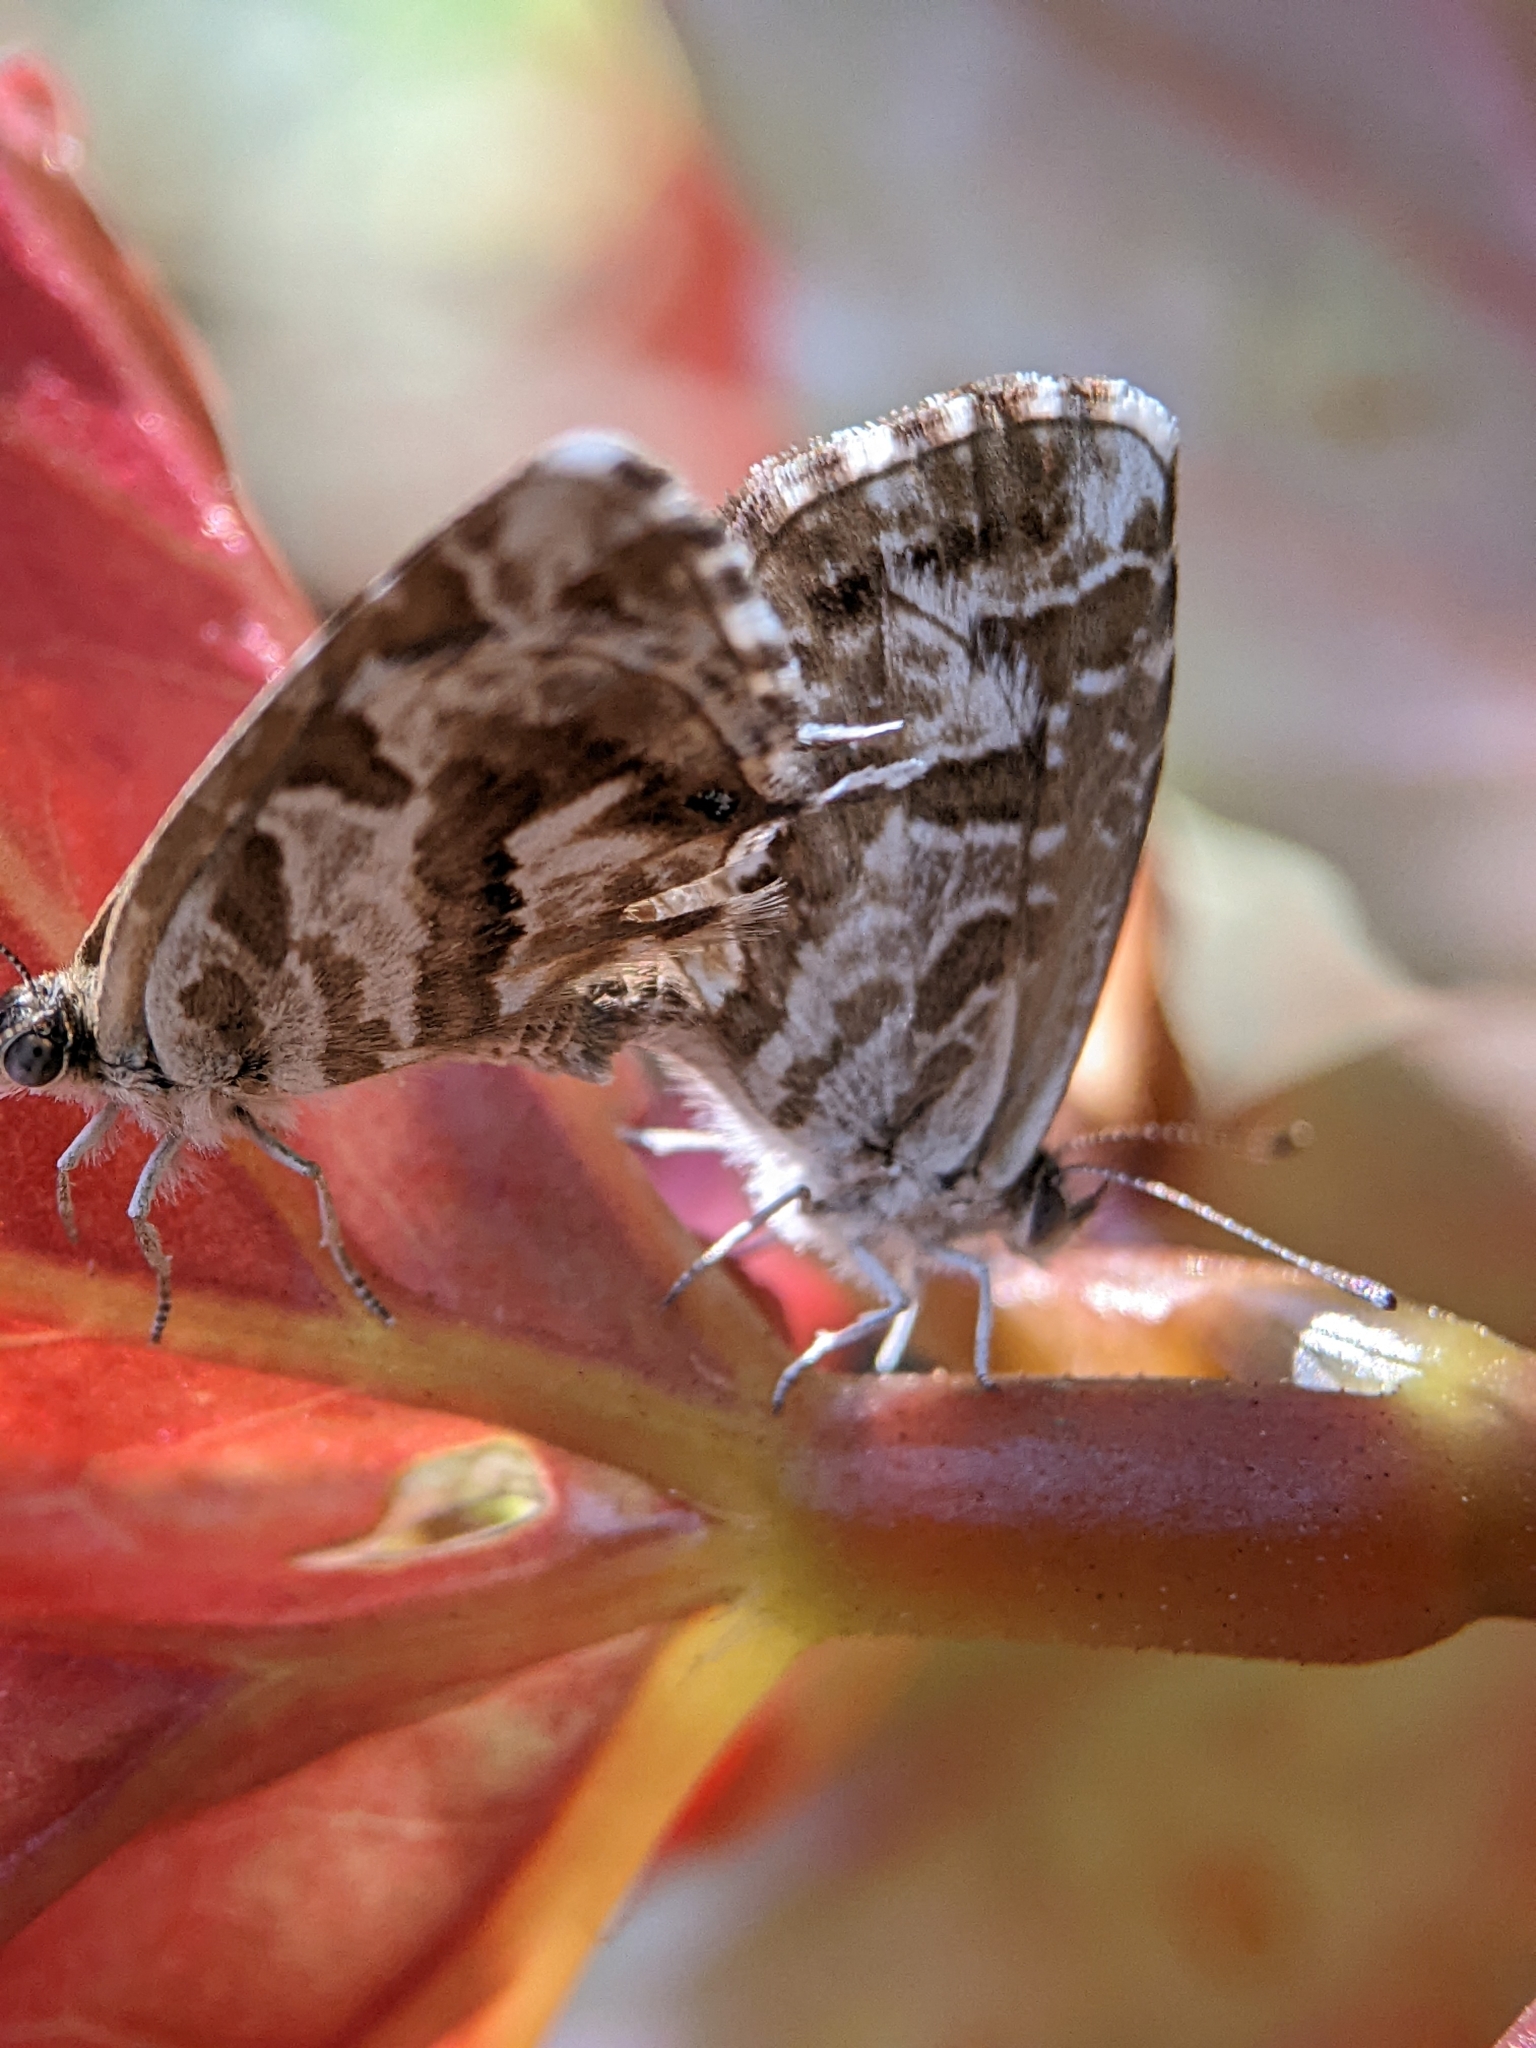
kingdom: Animalia
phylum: Arthropoda
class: Insecta
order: Lepidoptera
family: Lycaenidae
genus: Cacyreus
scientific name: Cacyreus marshalli
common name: Geranium bronze
